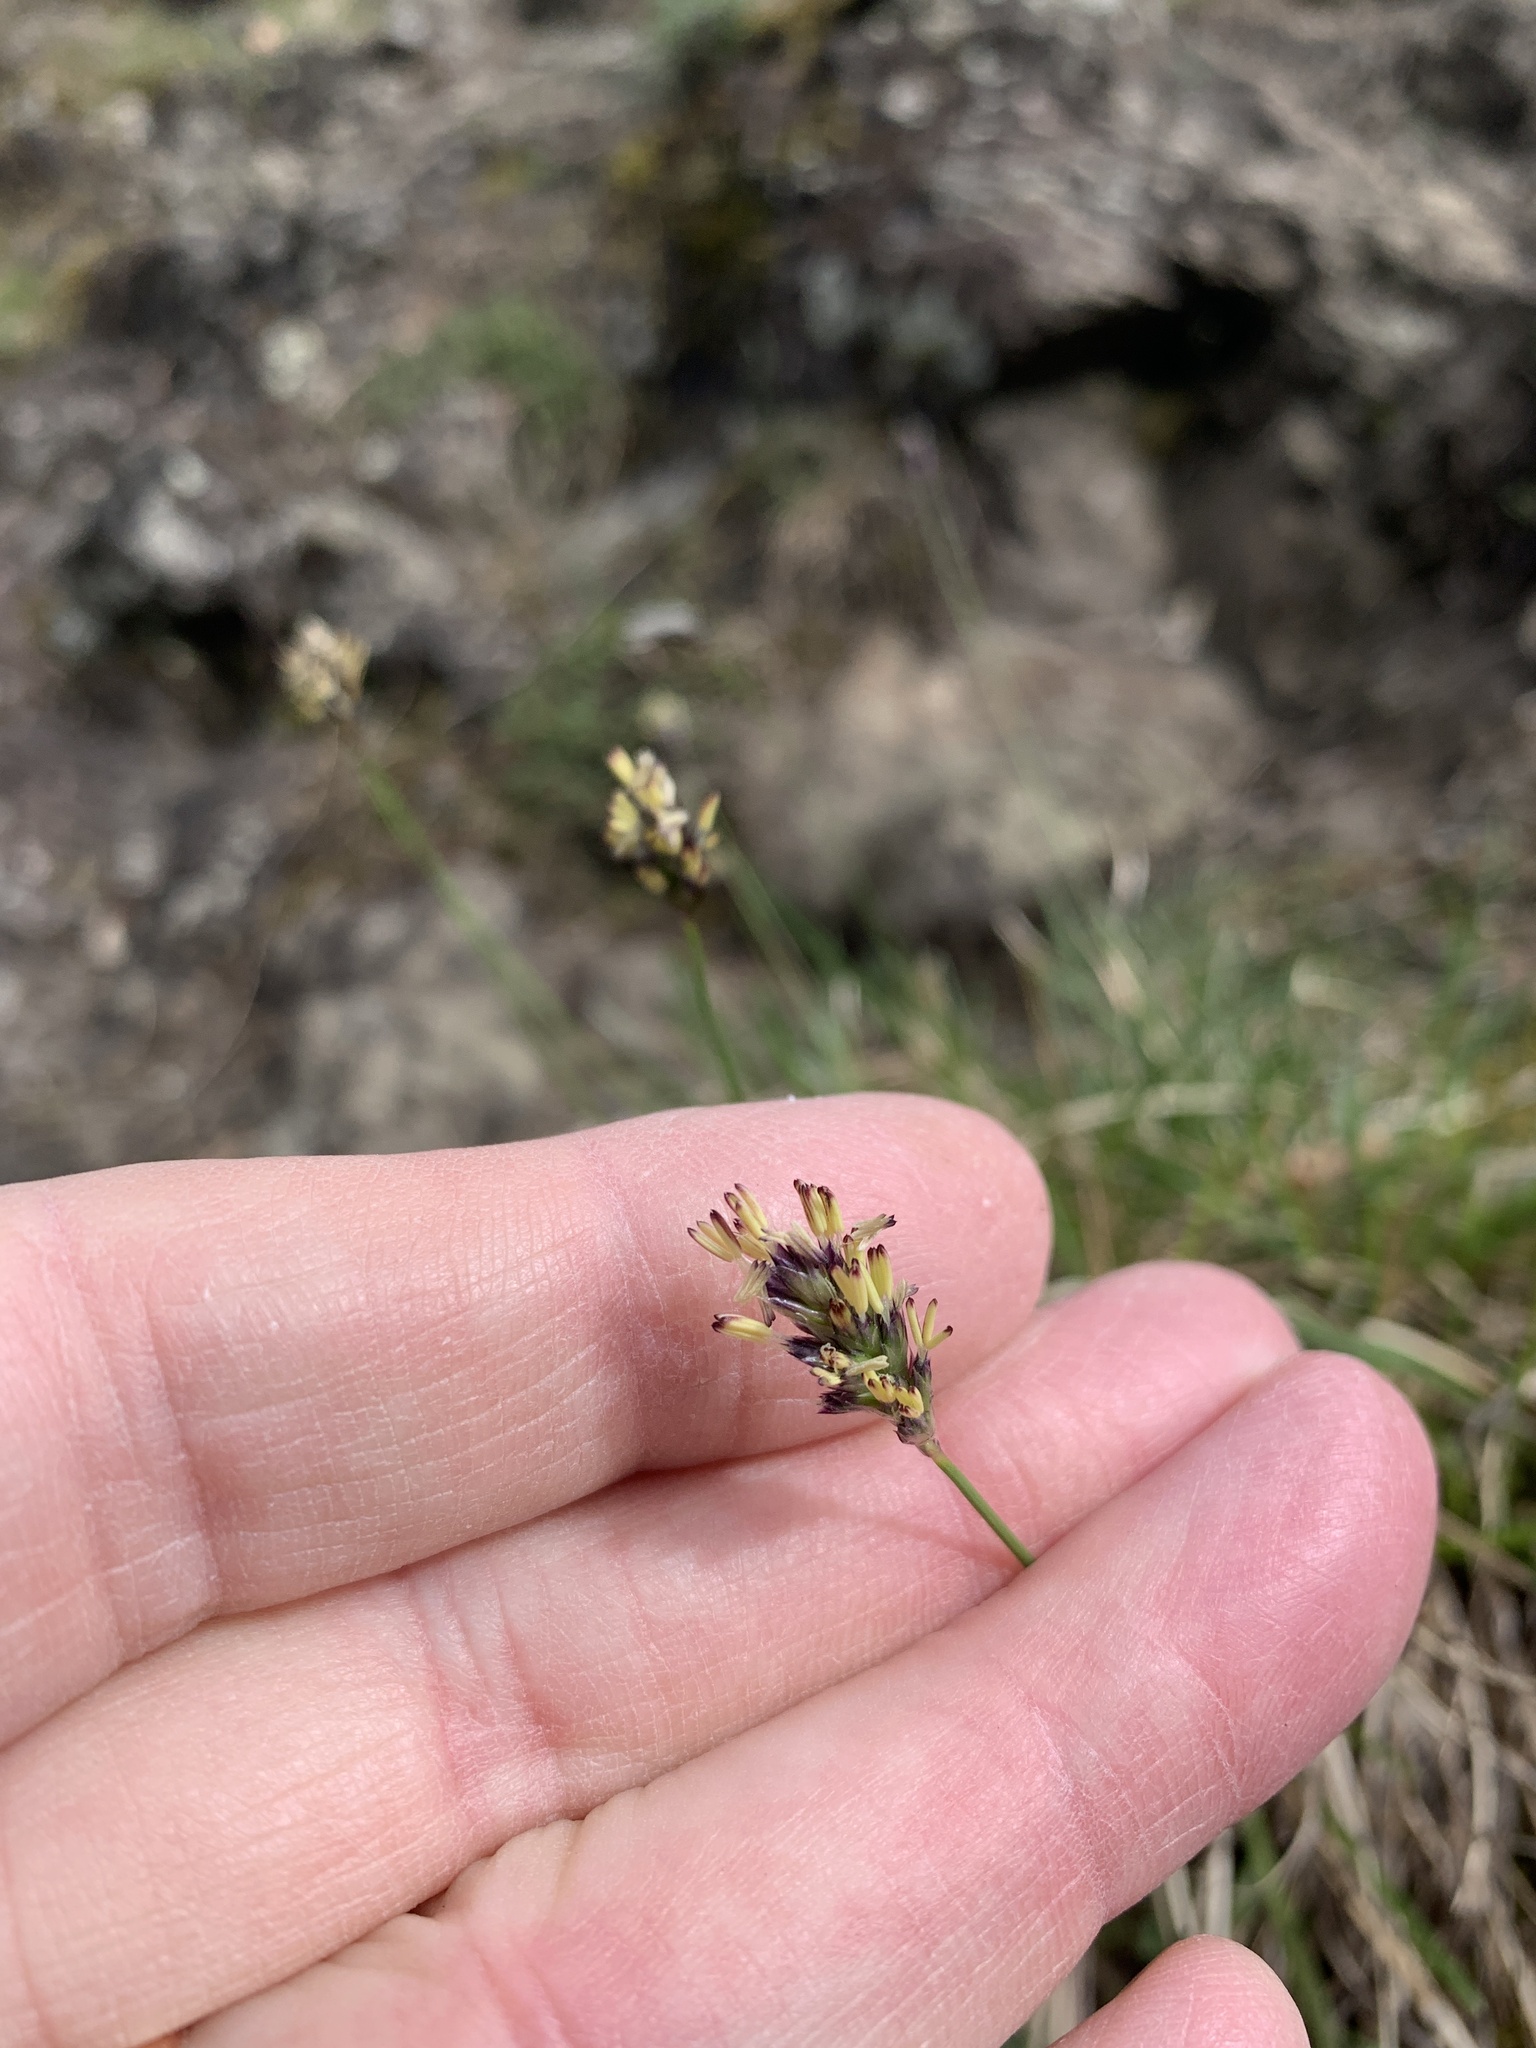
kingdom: Plantae
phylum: Tracheophyta
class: Liliopsida
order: Poales
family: Poaceae
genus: Sesleria
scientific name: Sesleria caerulea
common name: Blue moor-grass
